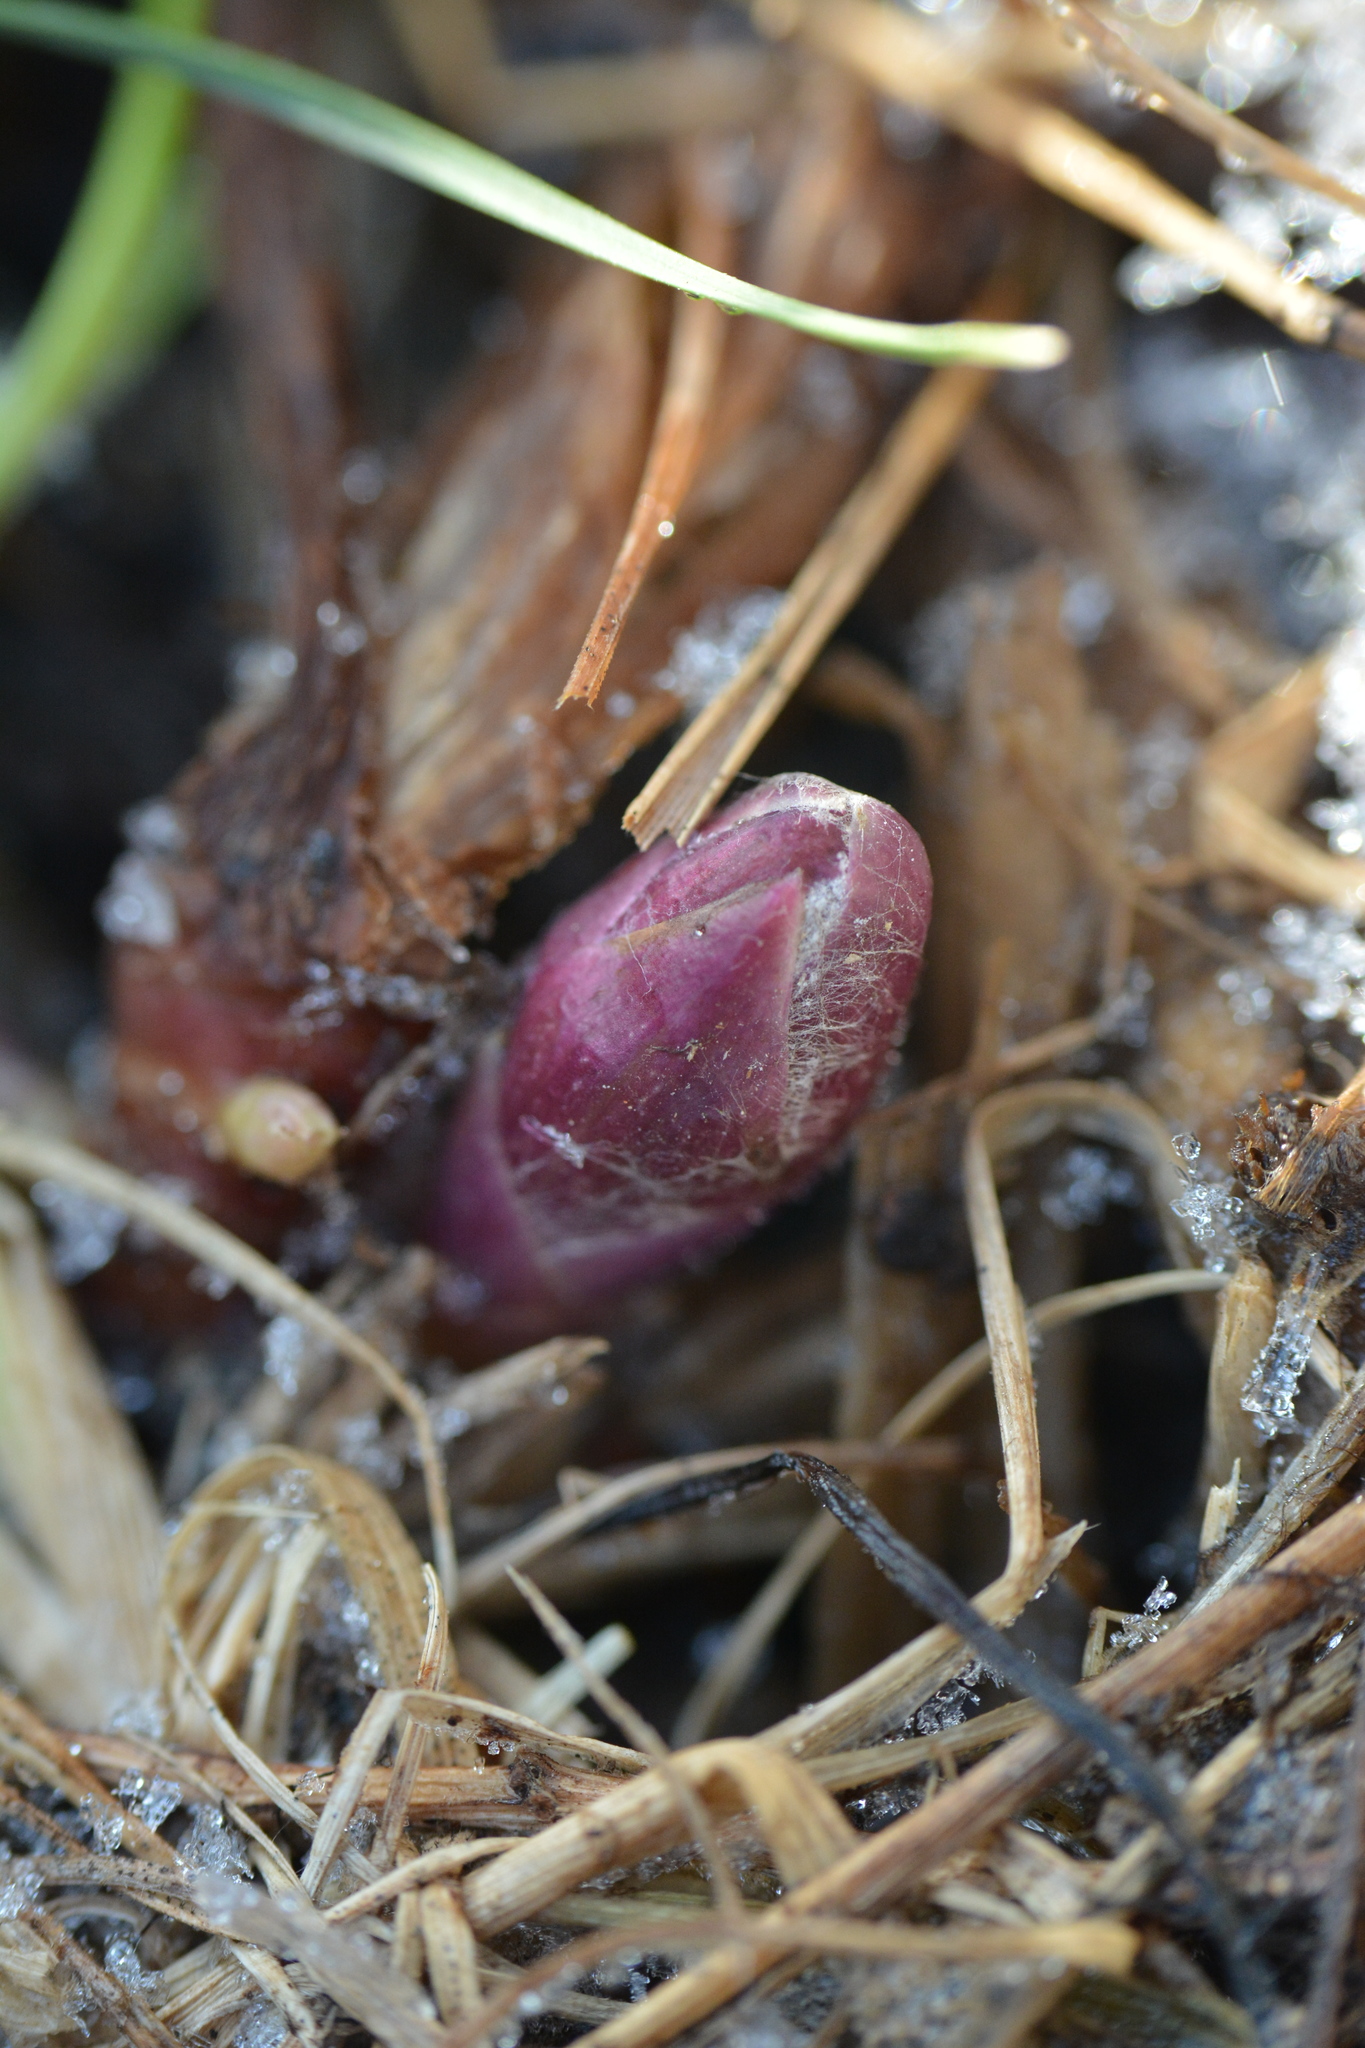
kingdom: Plantae
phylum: Tracheophyta
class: Magnoliopsida
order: Asterales
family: Asteraceae
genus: Tussilago
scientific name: Tussilago farfara
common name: Coltsfoot
